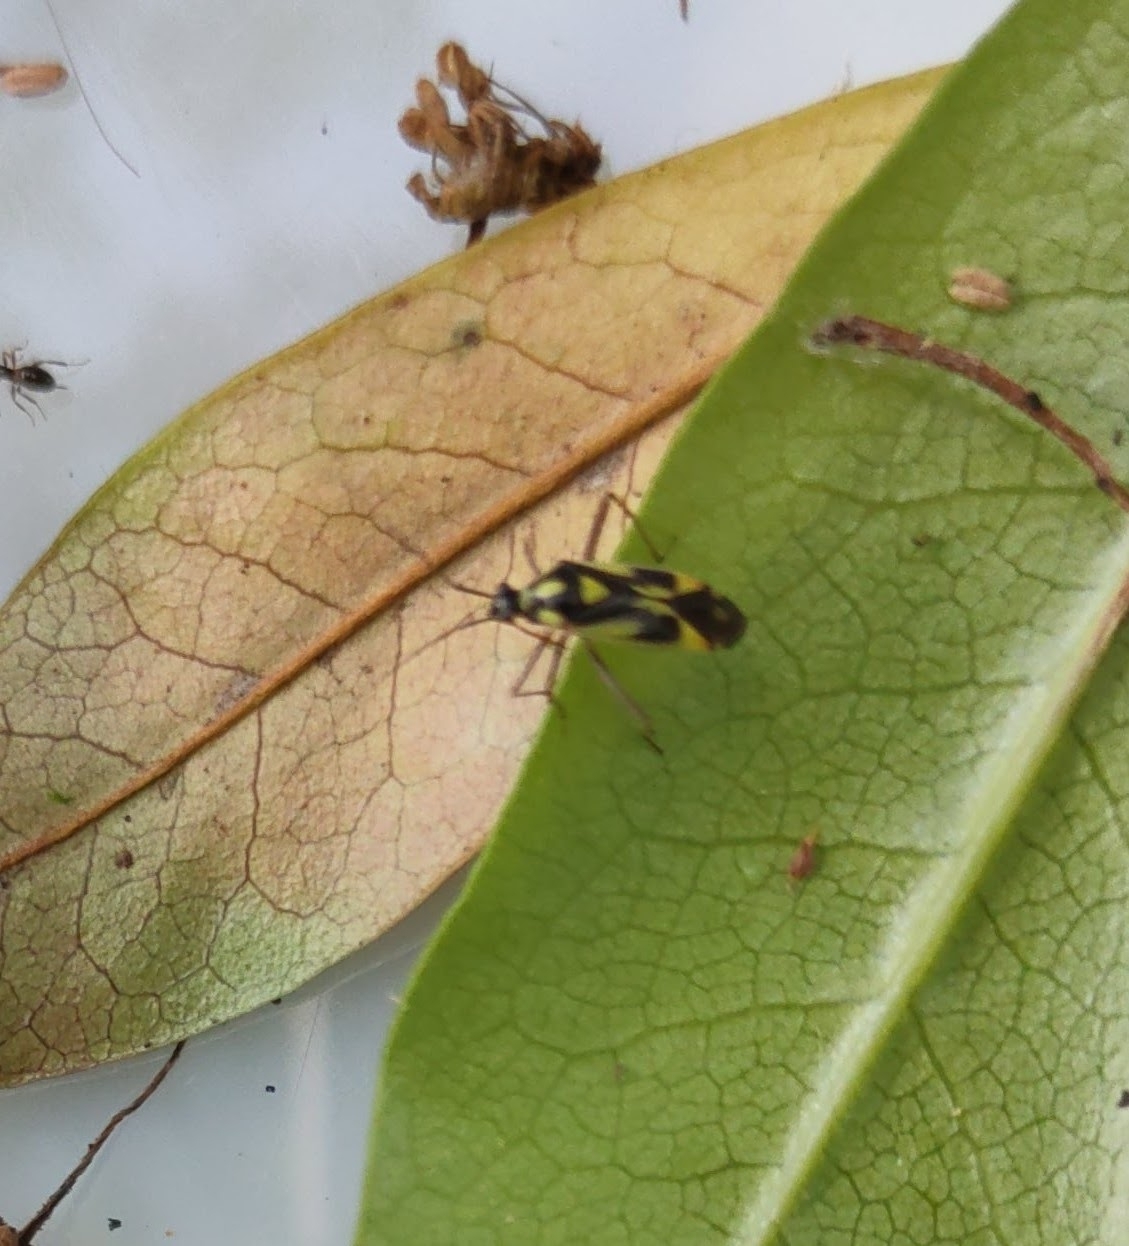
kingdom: Animalia
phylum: Arthropoda
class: Insecta
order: Hemiptera
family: Miridae
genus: Grypocoris
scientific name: Grypocoris stysi
